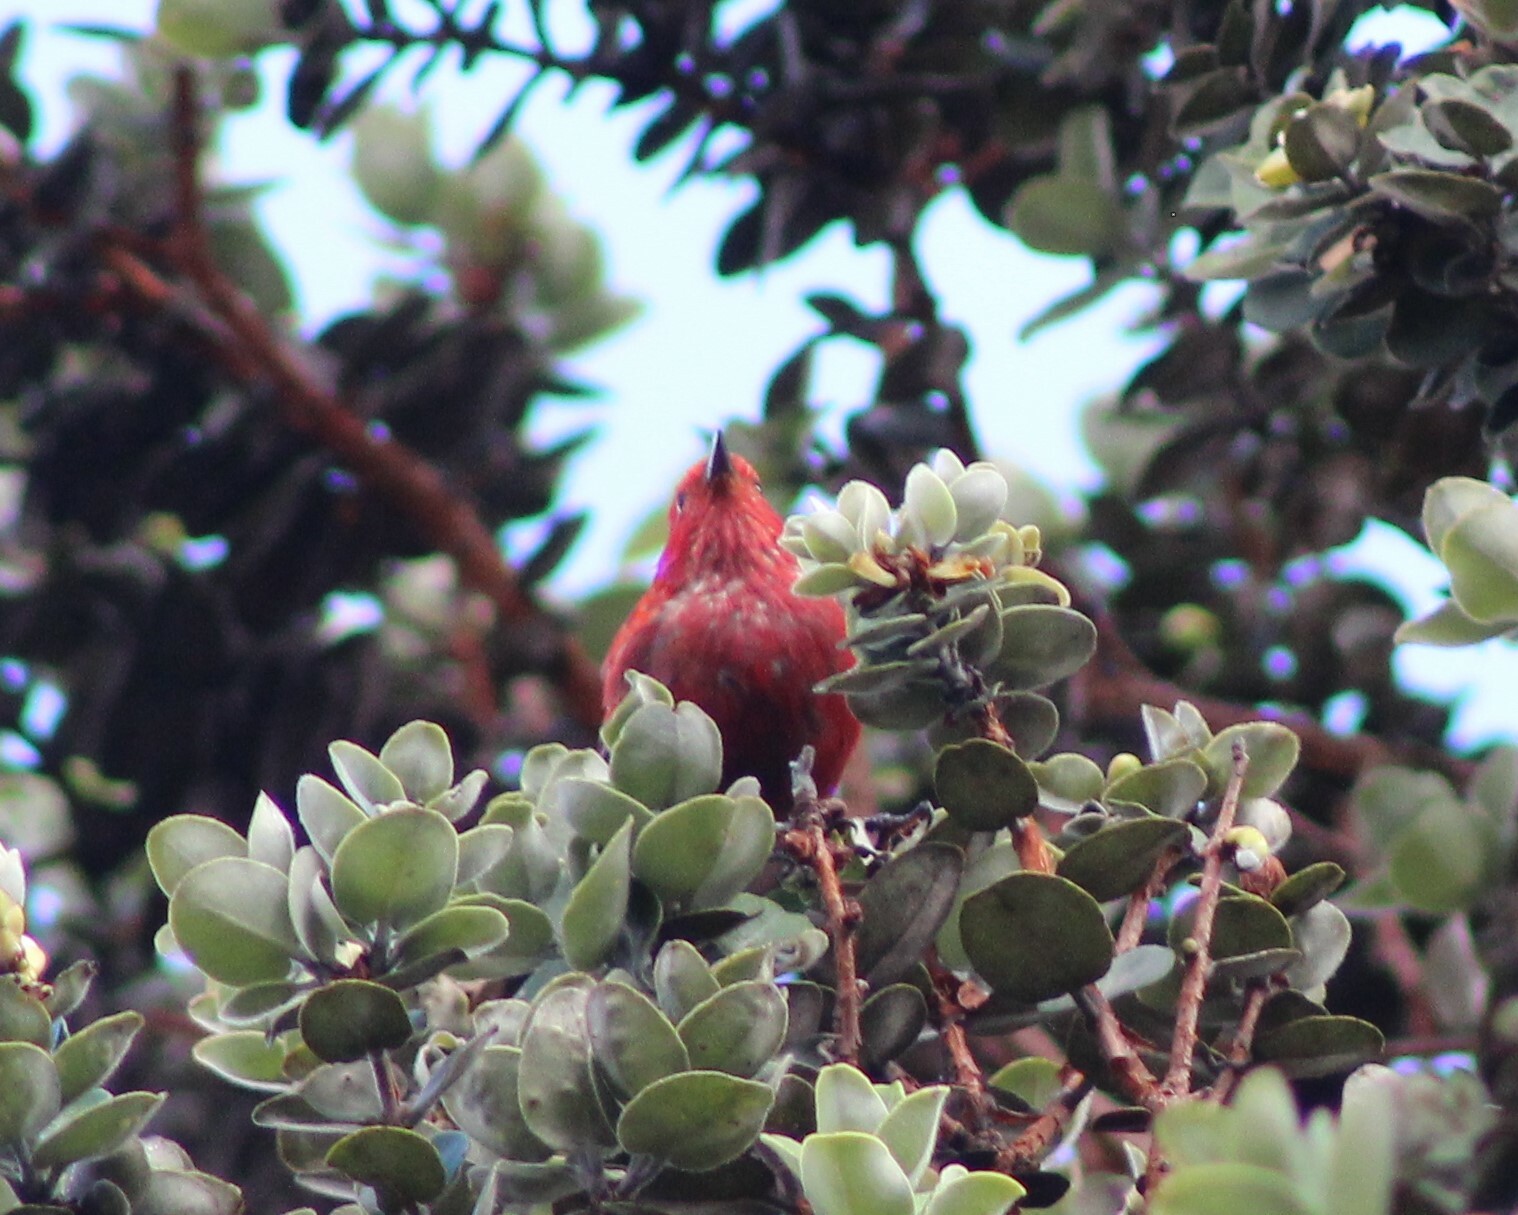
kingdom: Animalia
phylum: Chordata
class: Aves
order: Passeriformes
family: Fringillidae
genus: Himatione
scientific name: Himatione sanguinea
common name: Apapane
